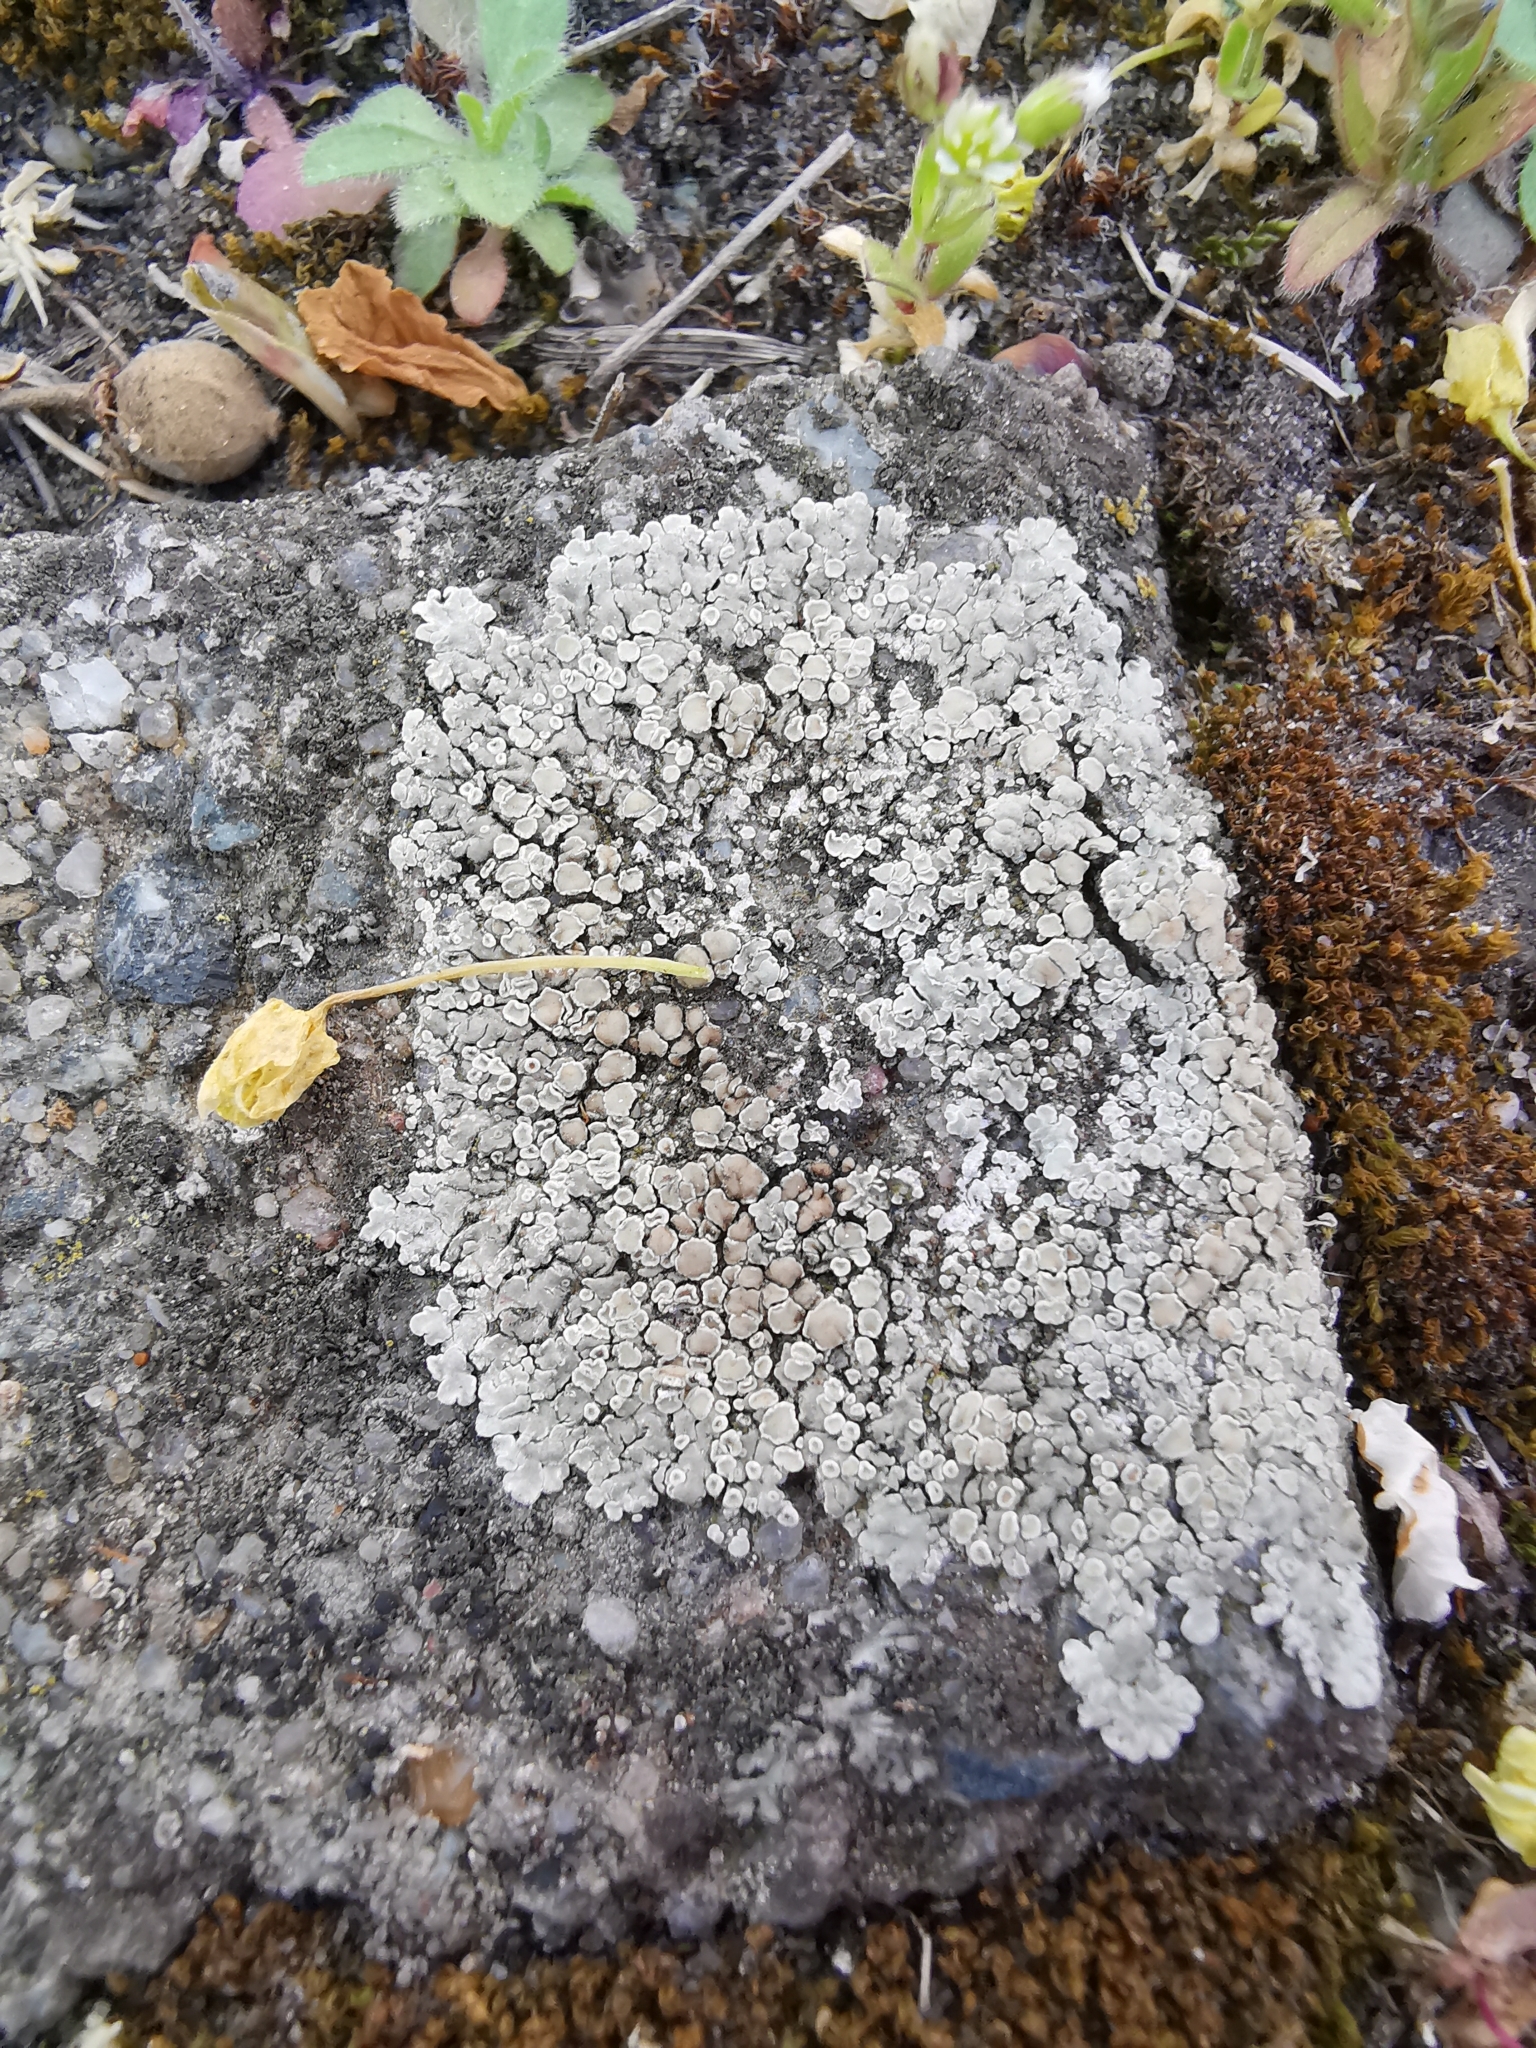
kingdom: Fungi
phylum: Ascomycota
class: Lecanoromycetes
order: Lecanorales
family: Lecanoraceae
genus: Protoparmeliopsis
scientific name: Protoparmeliopsis muralis
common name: Stonewall rim lichen
